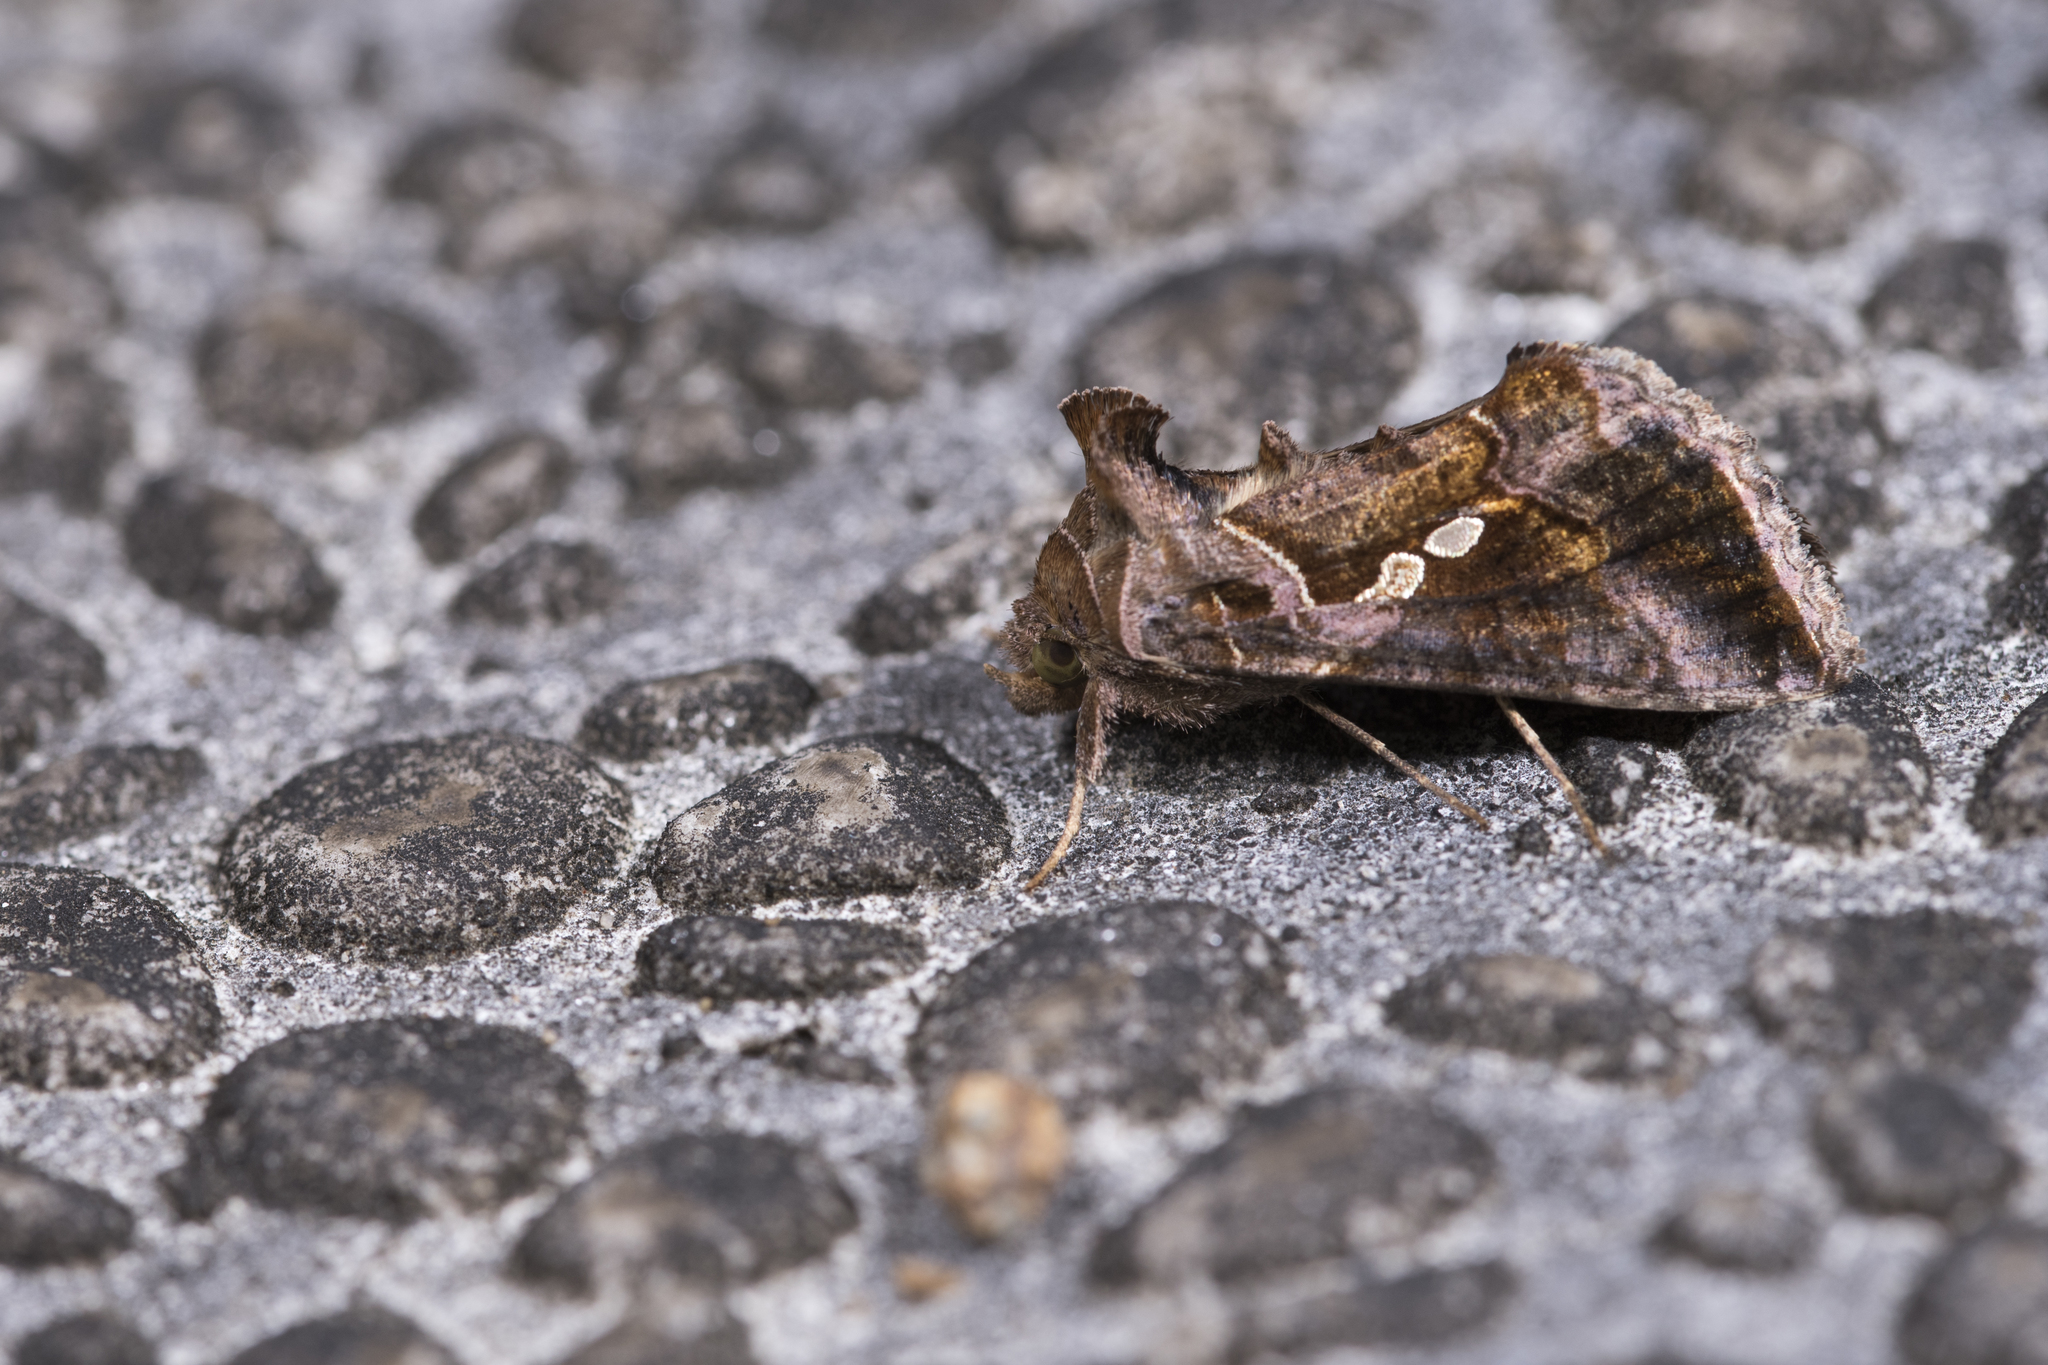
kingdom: Animalia
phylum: Arthropoda
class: Insecta
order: Lepidoptera
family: Noctuidae
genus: Chrysodeixis
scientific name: Chrysodeixis eriosoma
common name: Green garden looper
